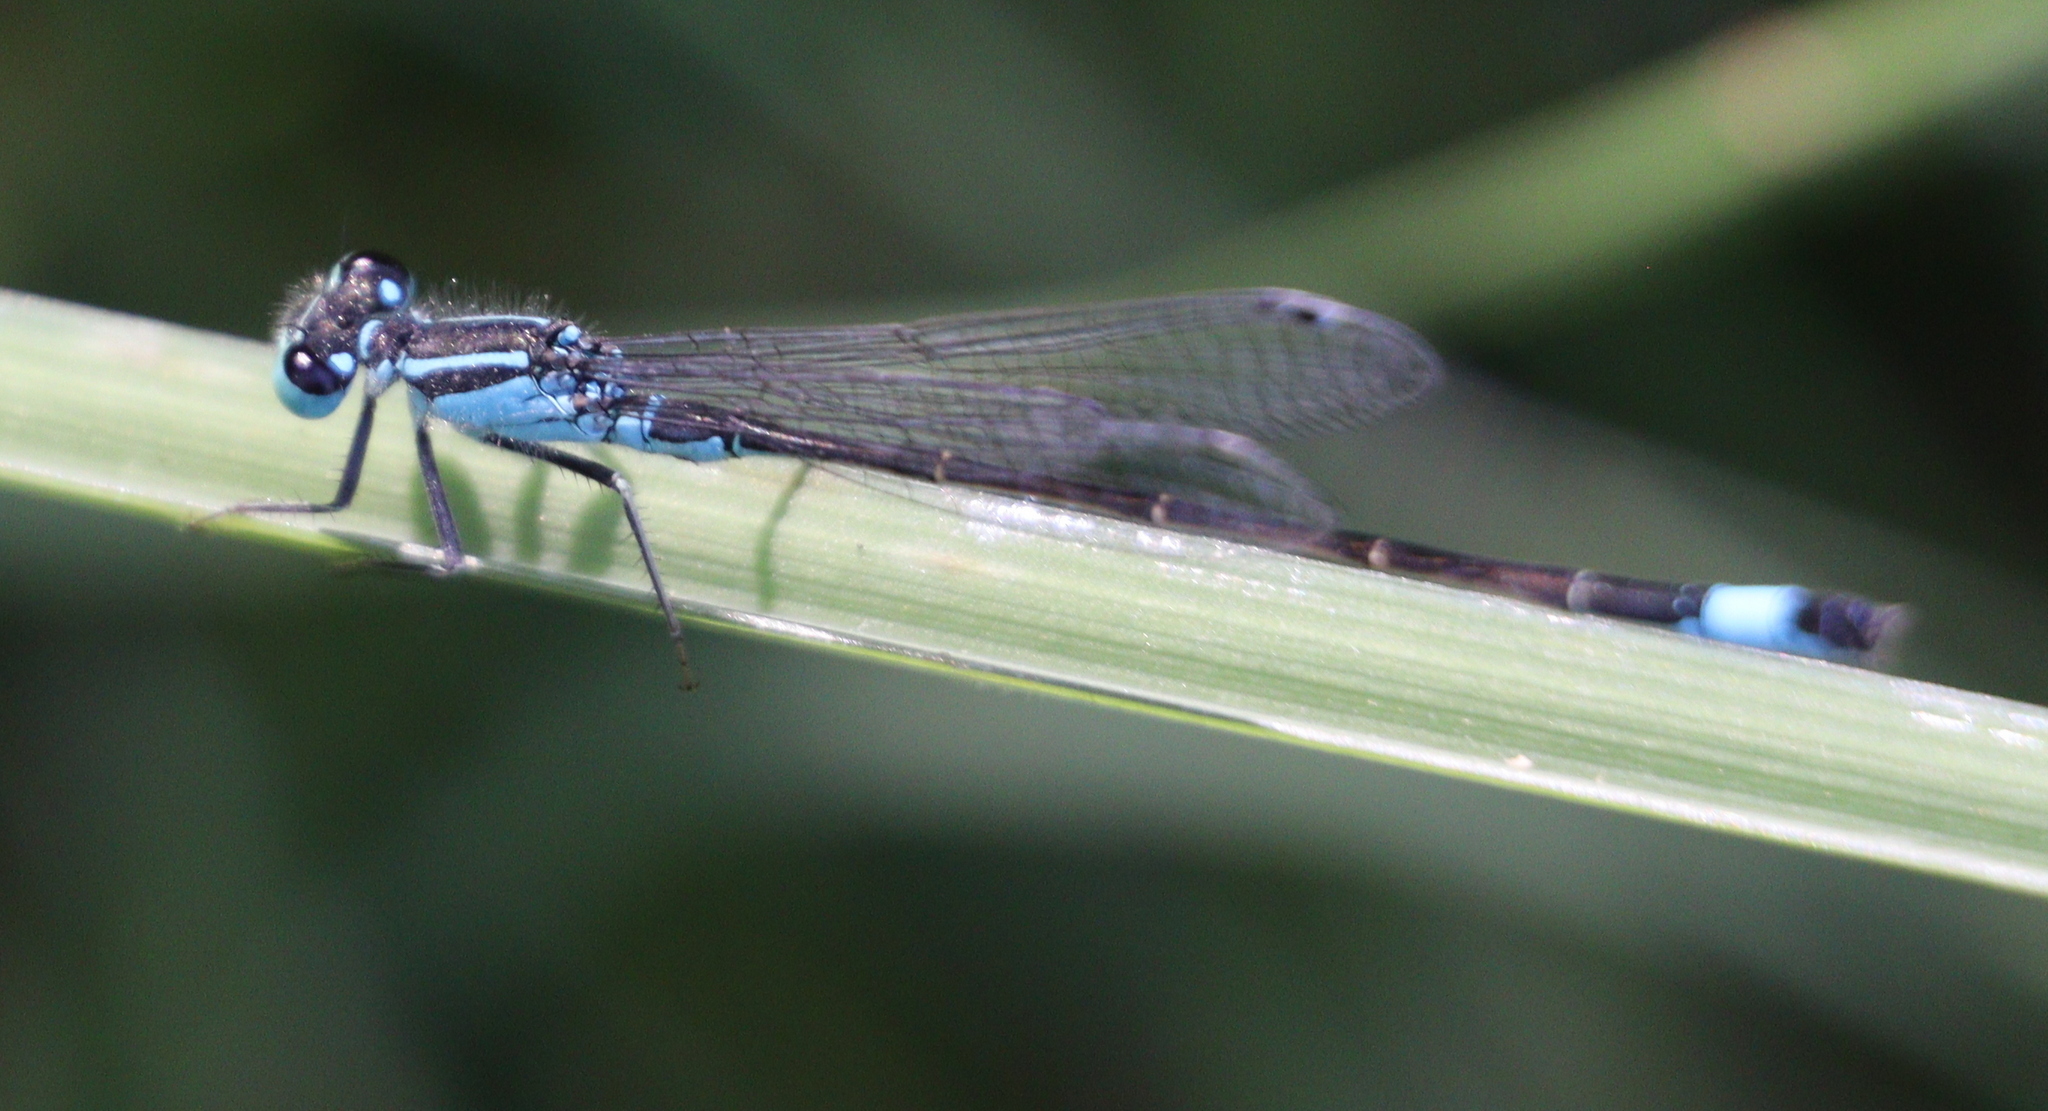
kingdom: Animalia
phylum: Arthropoda
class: Insecta
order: Odonata
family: Coenagrionidae
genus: Ischnura
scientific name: Ischnura elegans
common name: Blue-tailed damselfly
